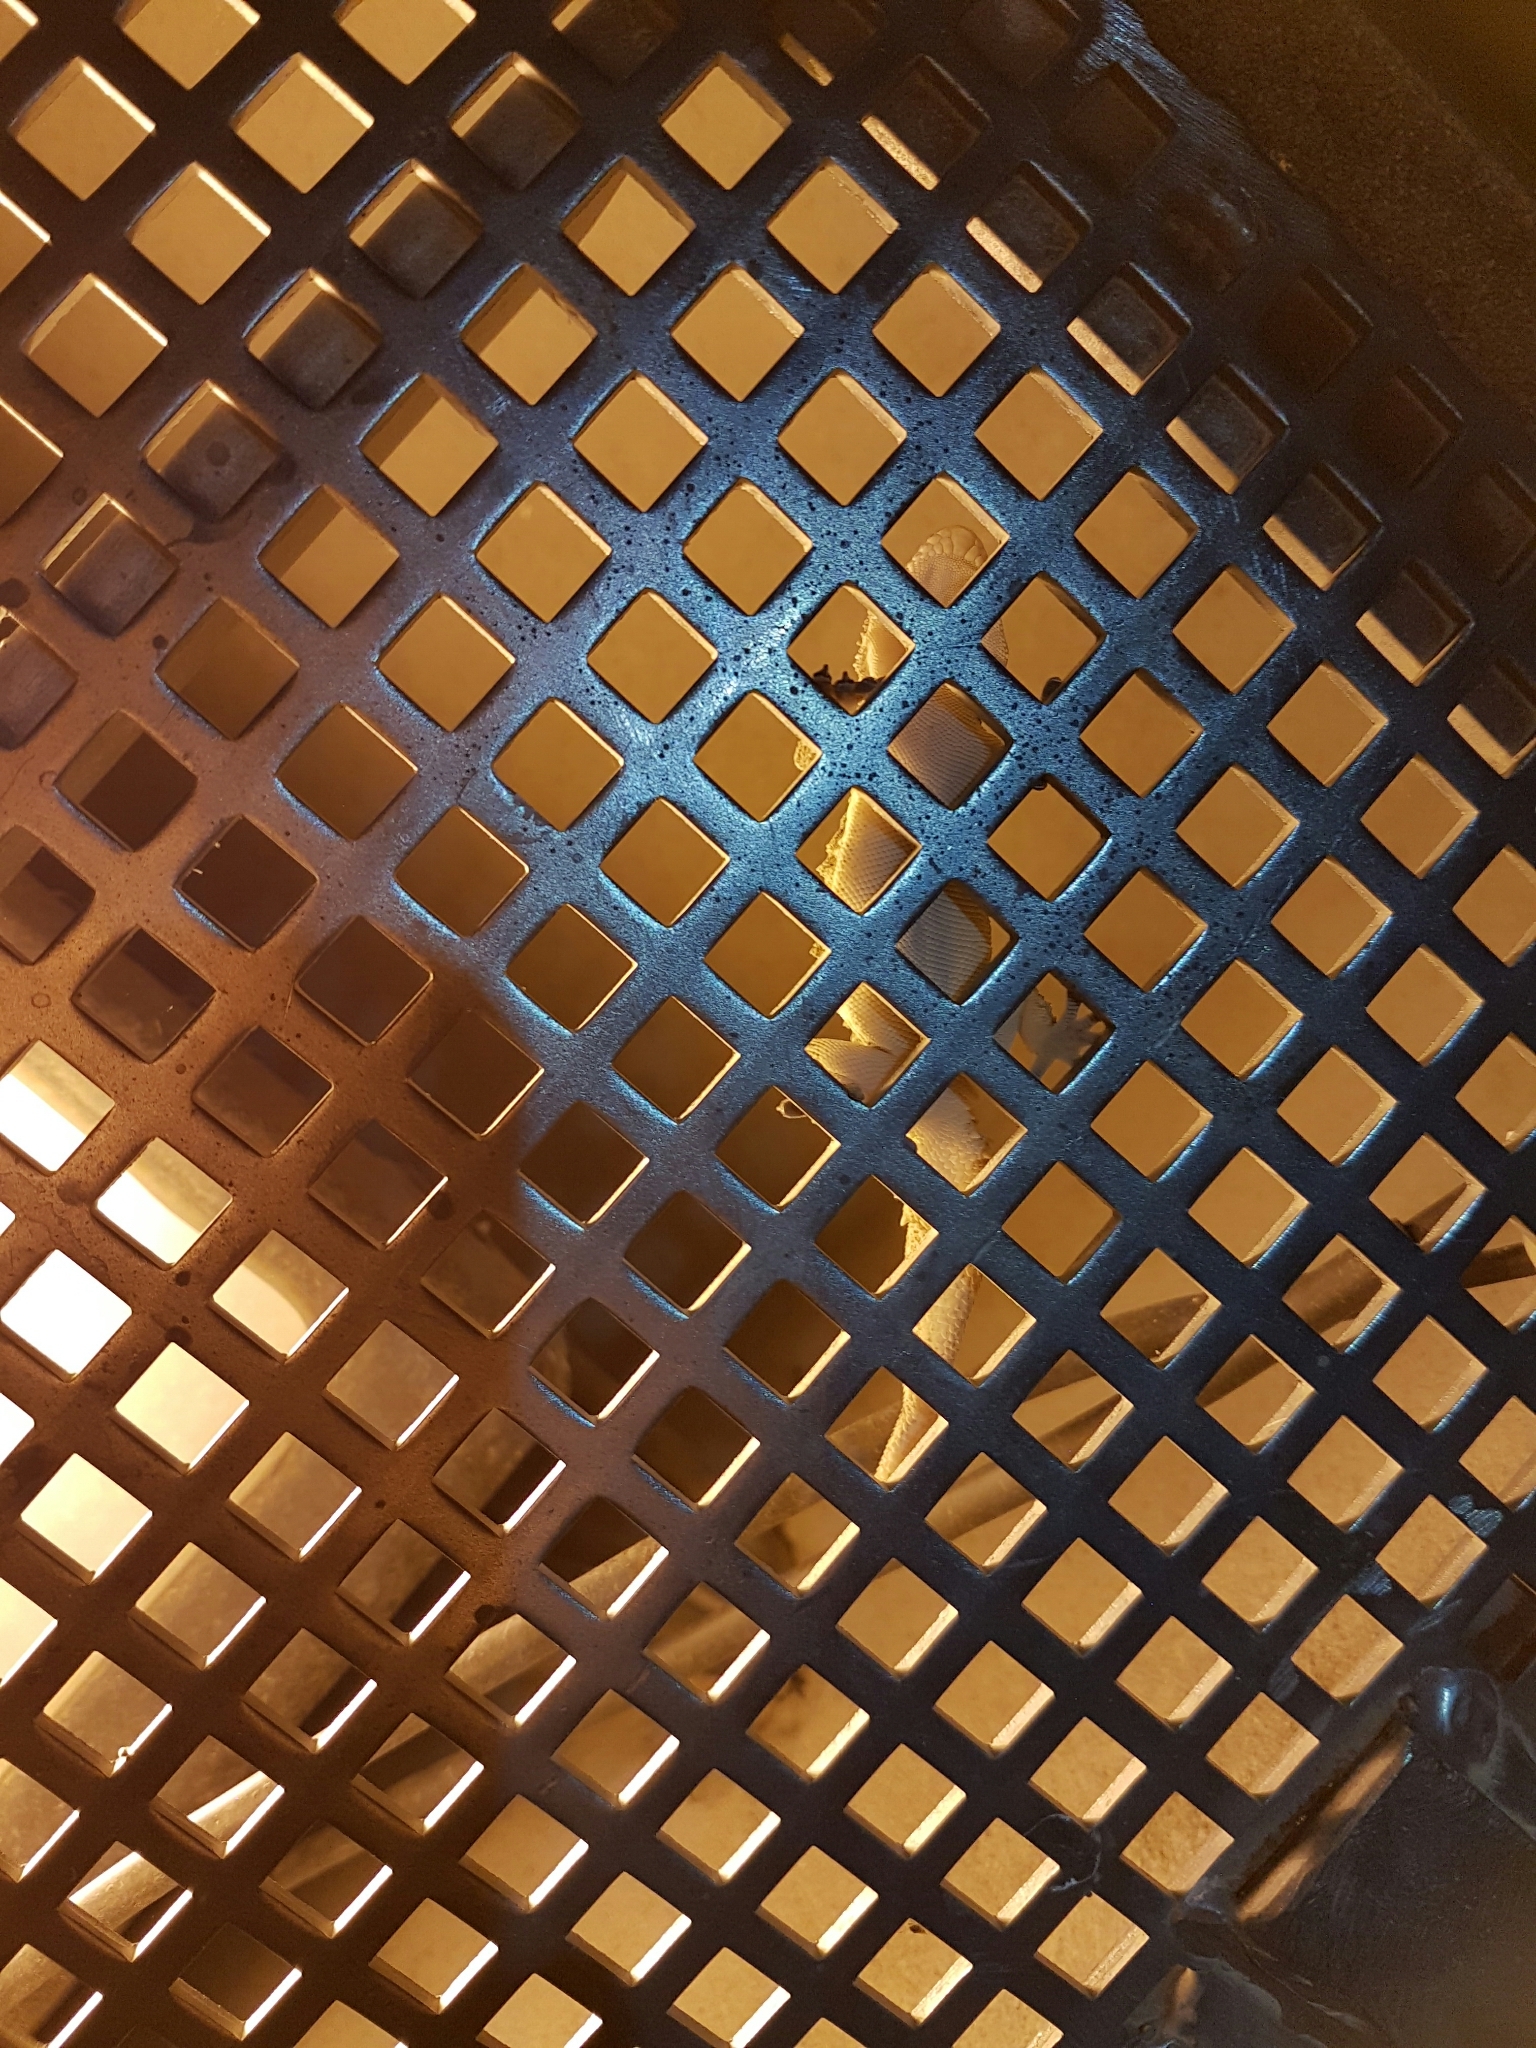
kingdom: Animalia
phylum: Chordata
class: Squamata
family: Phyllodactylidae
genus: Tarentola
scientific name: Tarentola mauritanica
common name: Moorish gecko
